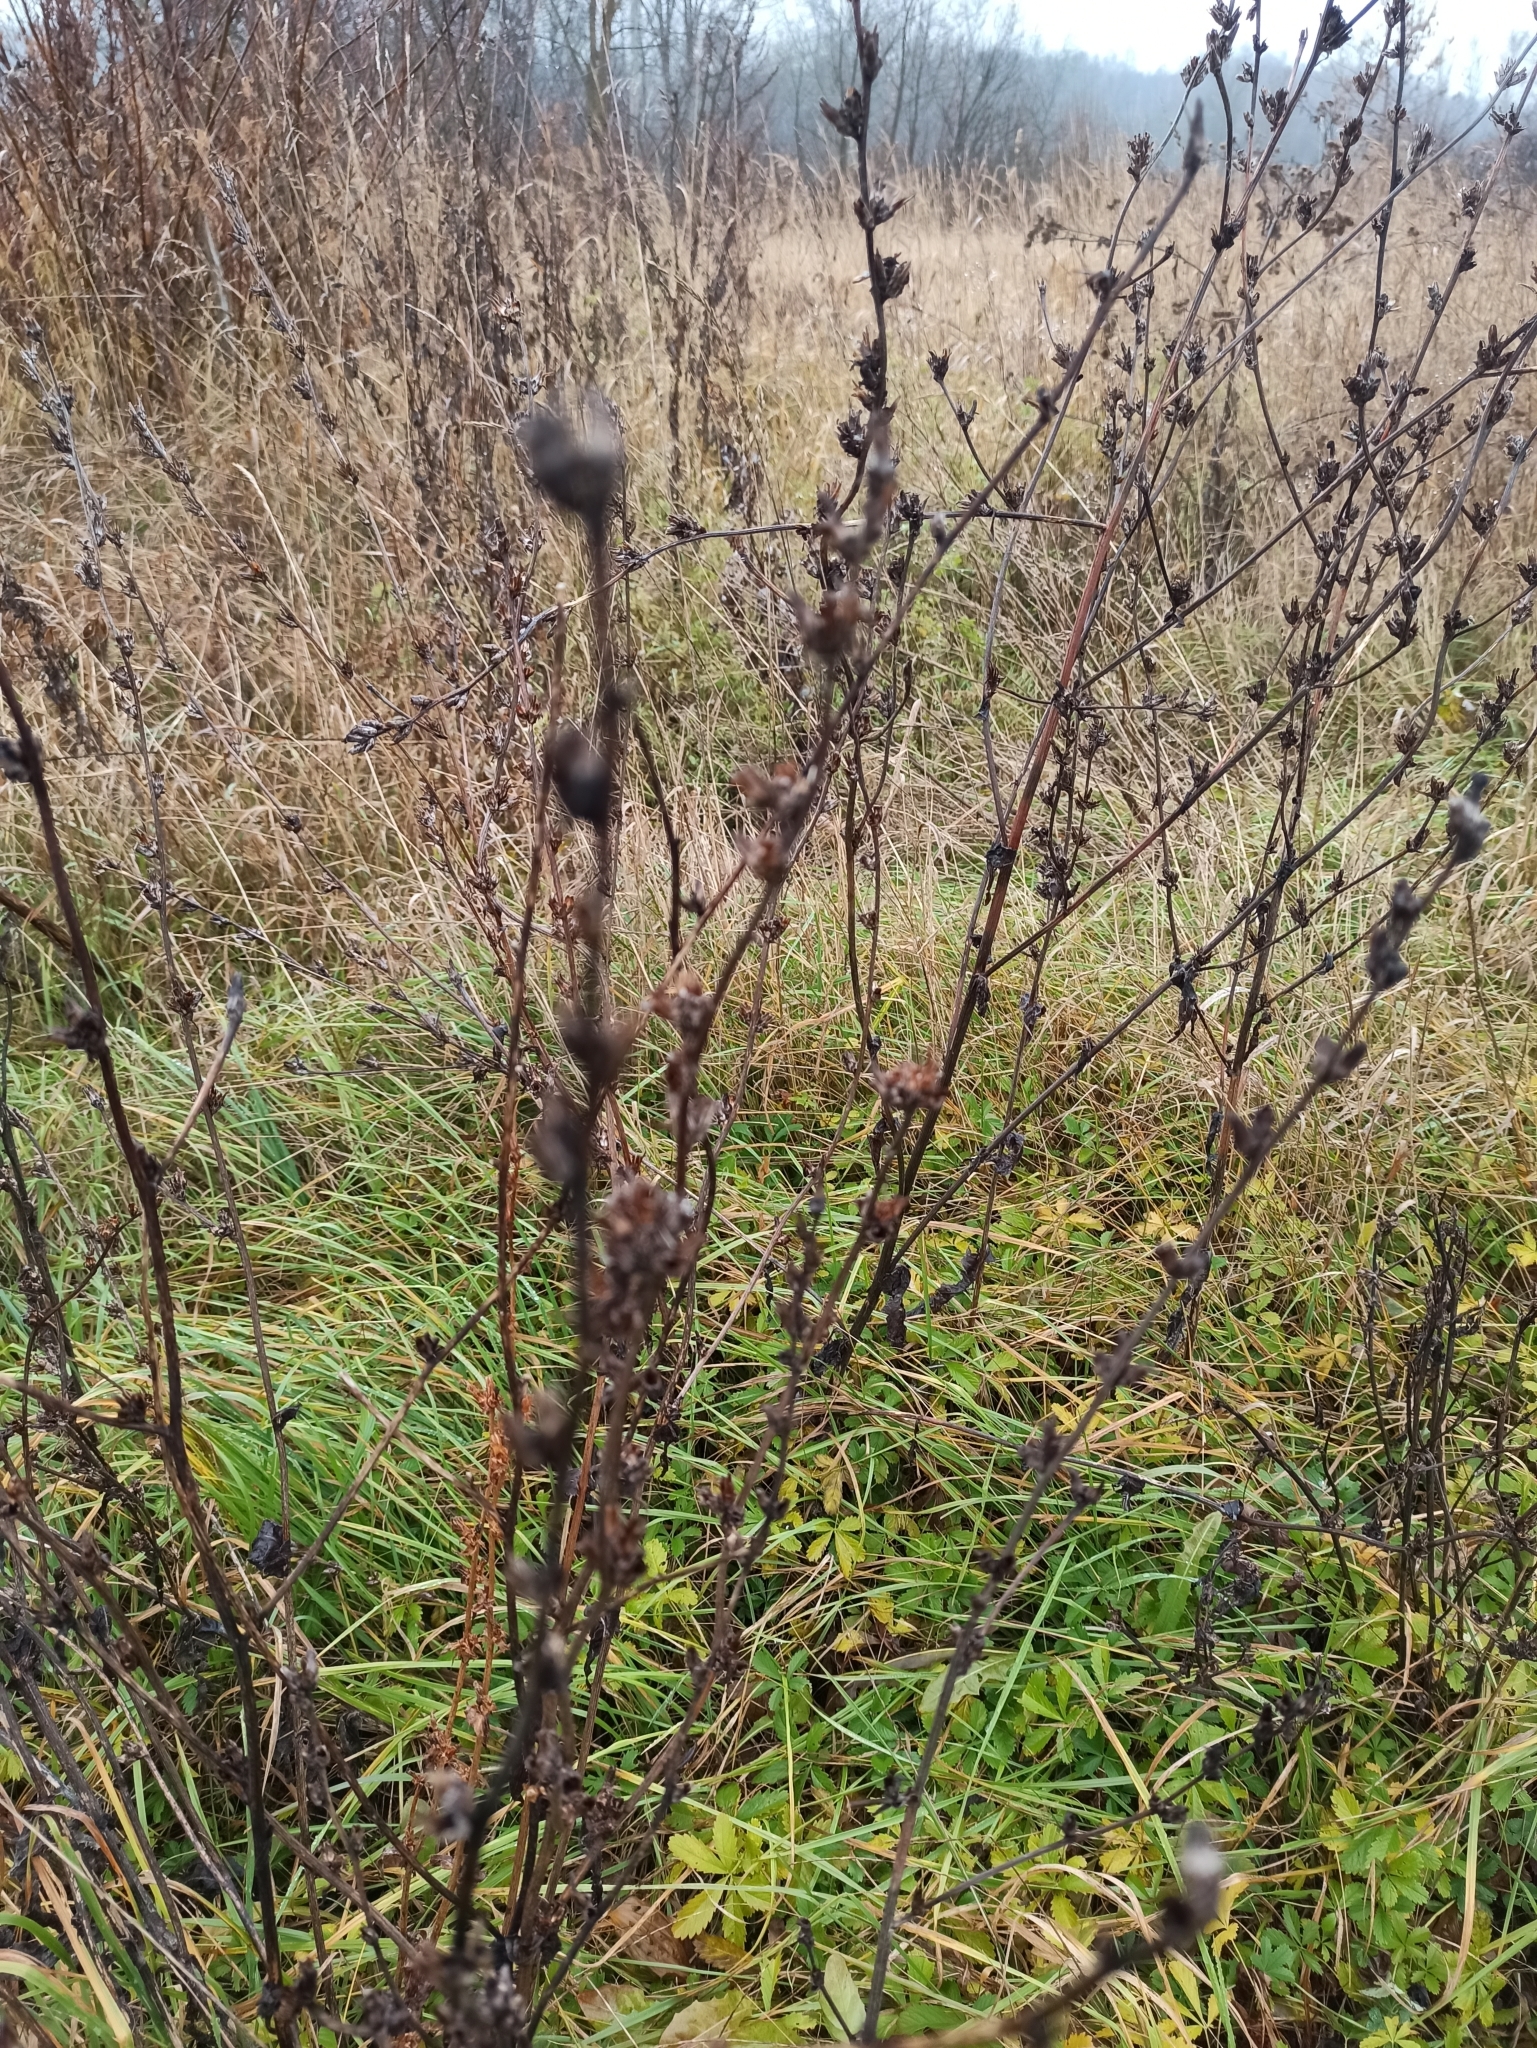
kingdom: Plantae
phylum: Tracheophyta
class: Magnoliopsida
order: Asterales
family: Asteraceae
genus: Cichorium
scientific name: Cichorium intybus
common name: Chicory
